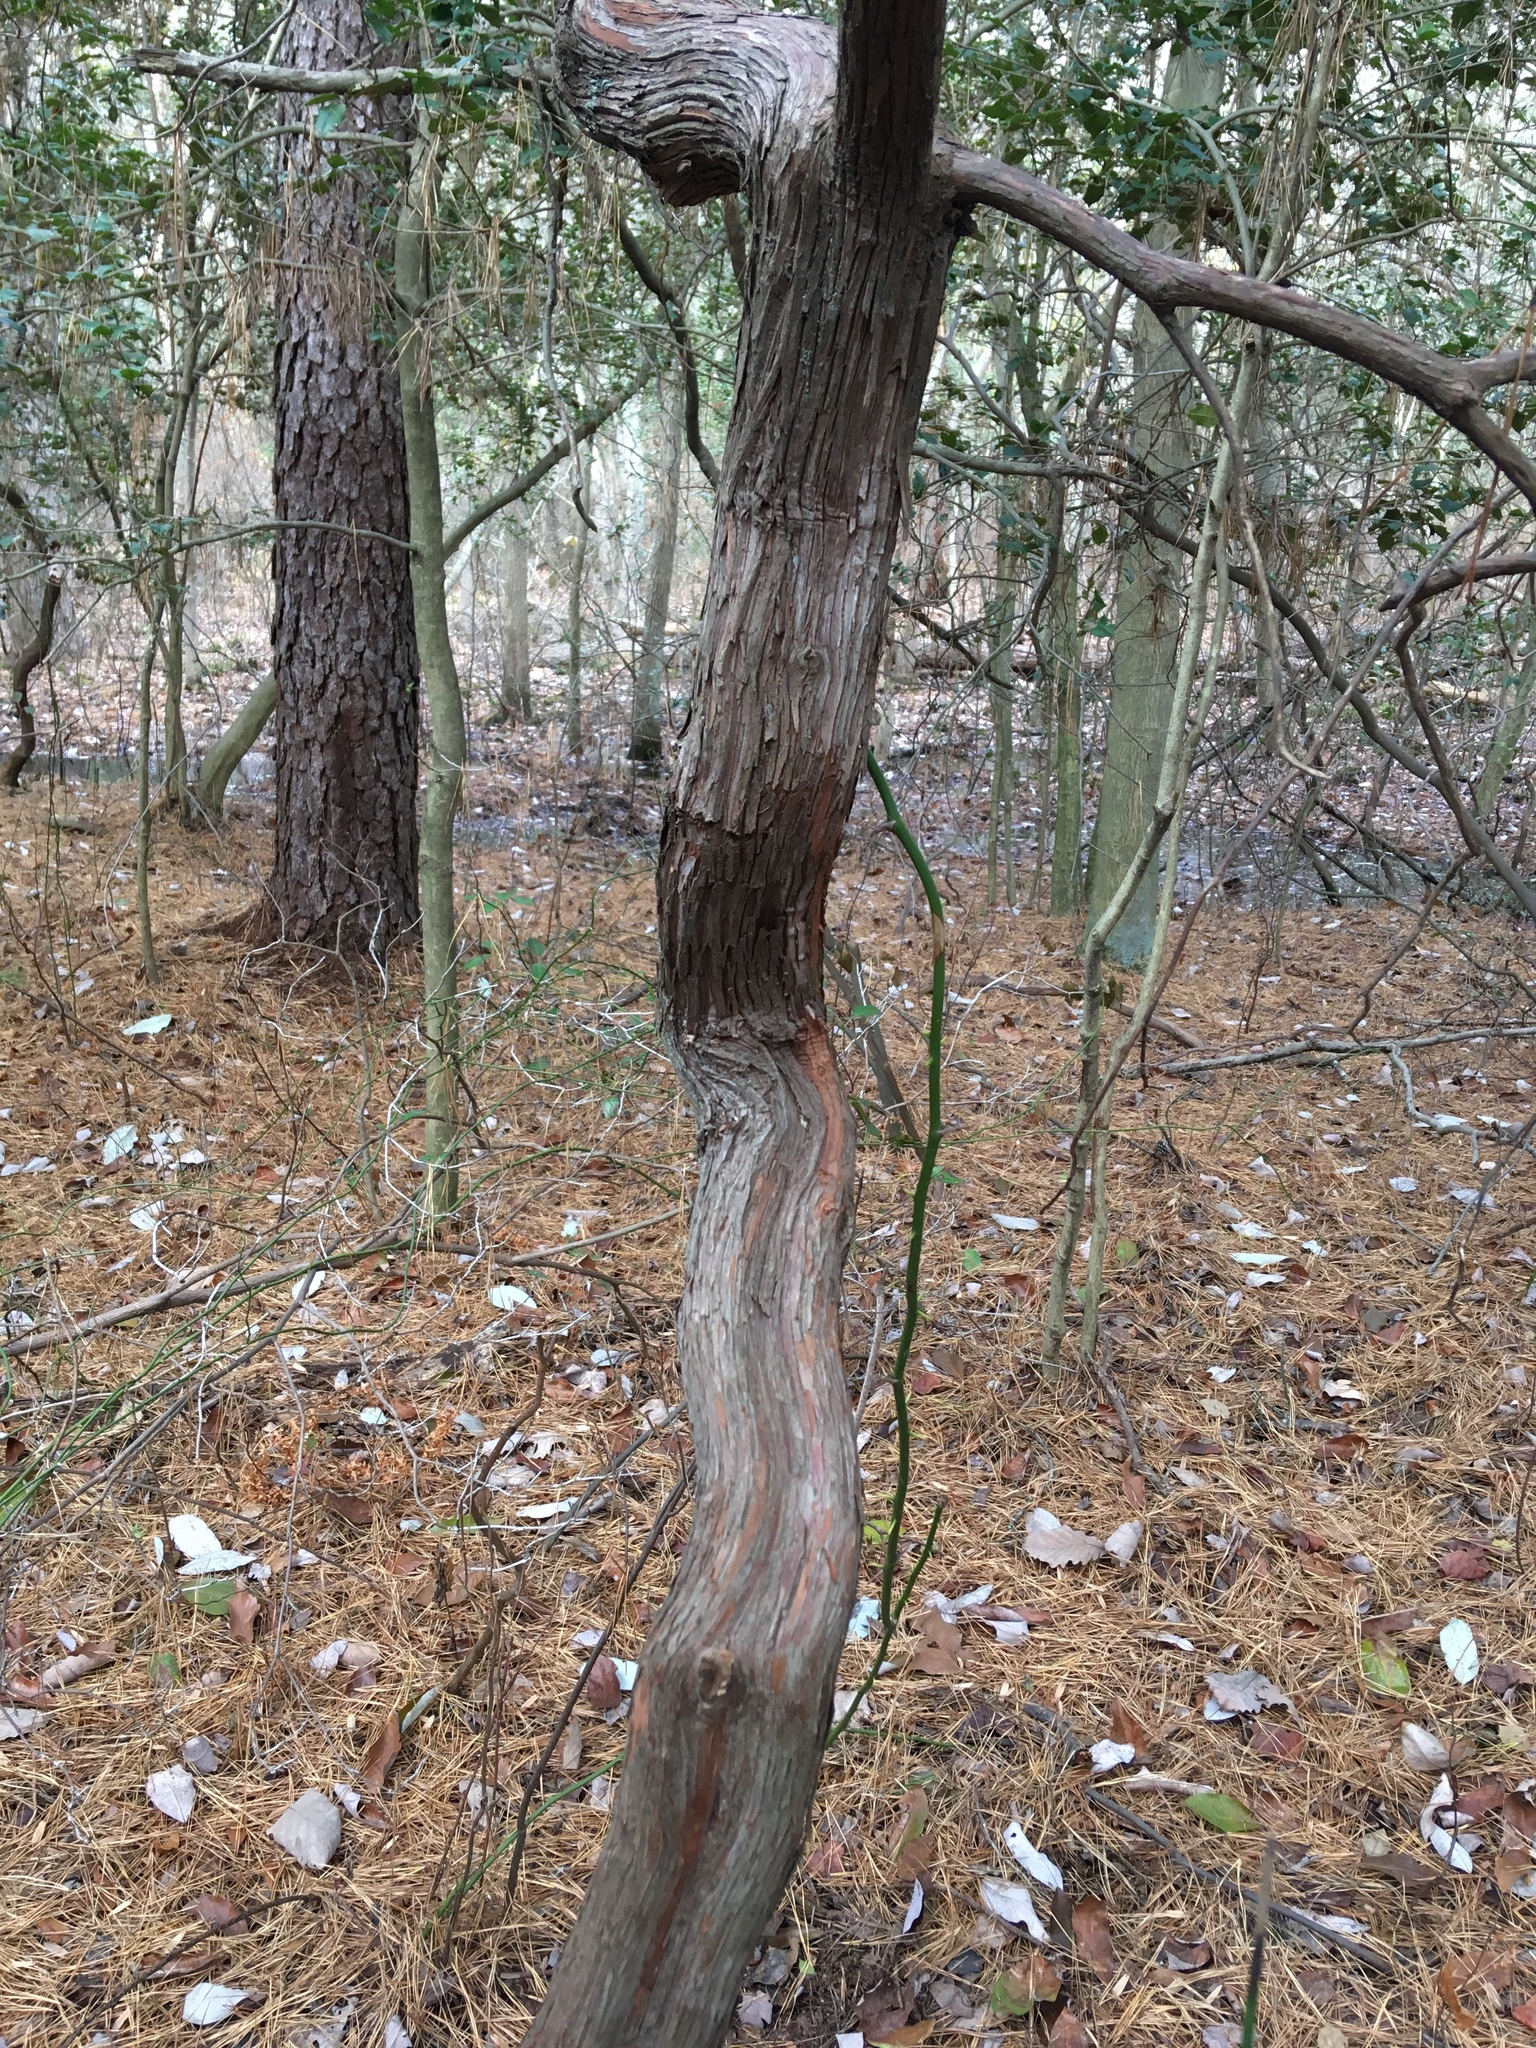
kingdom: Plantae
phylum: Tracheophyta
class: Magnoliopsida
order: Ericales
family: Ericaceae
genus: Kalmia
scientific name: Kalmia latifolia
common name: Mountain-laurel
